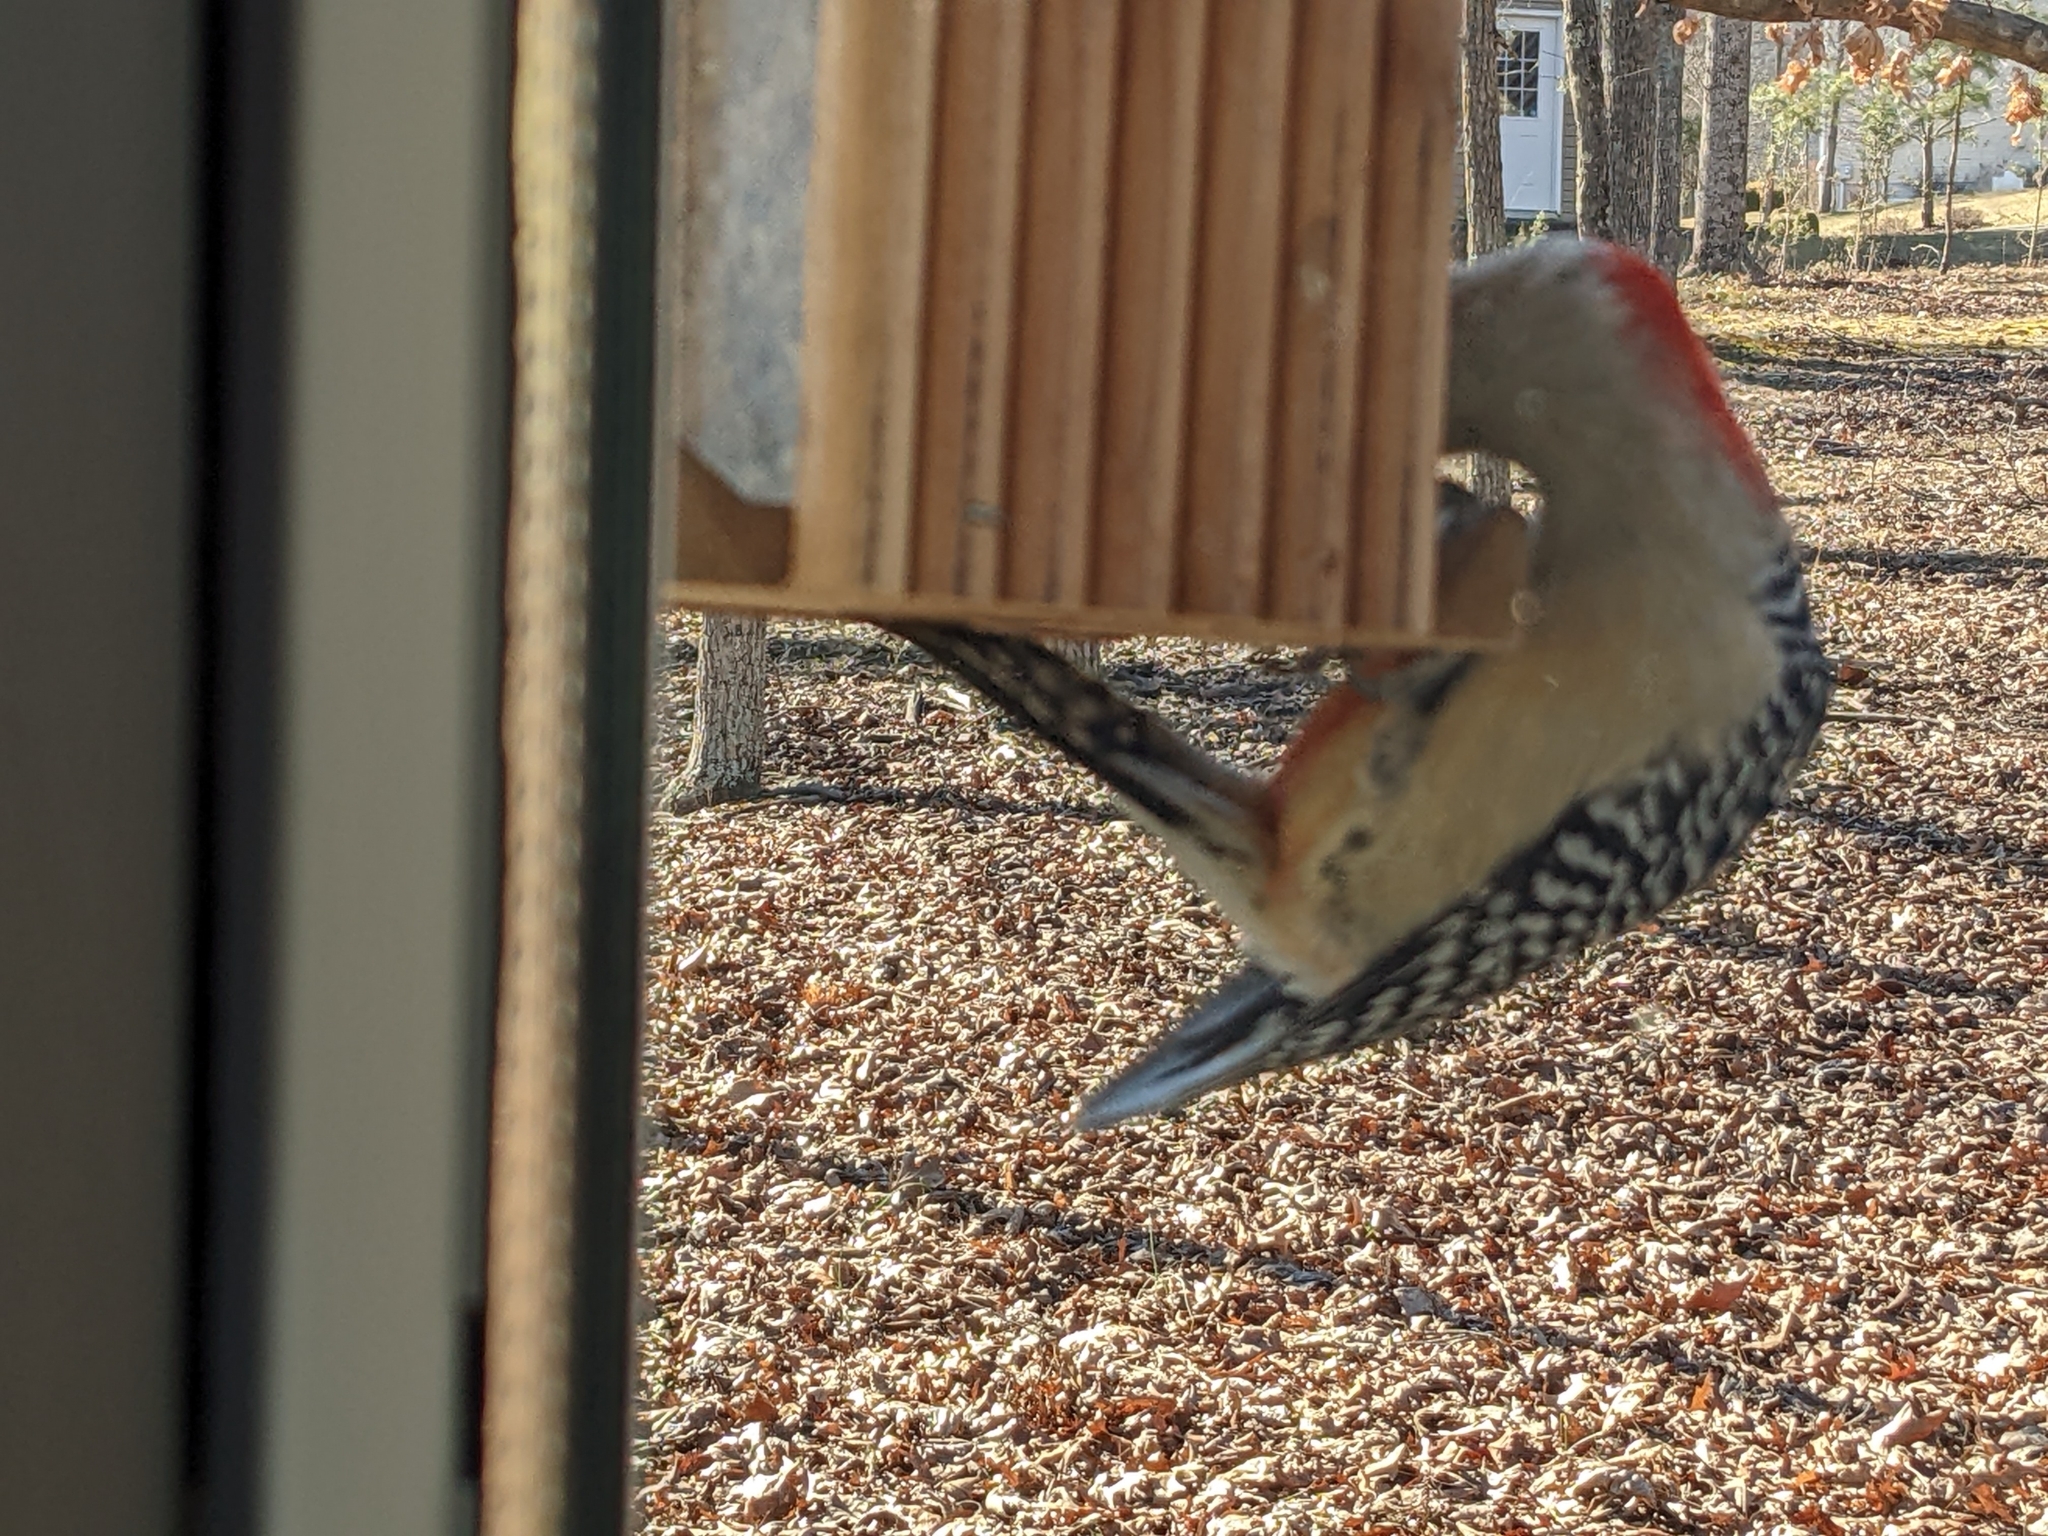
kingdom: Animalia
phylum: Chordata
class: Aves
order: Piciformes
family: Picidae
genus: Melanerpes
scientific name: Melanerpes carolinus
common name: Red-bellied woodpecker
